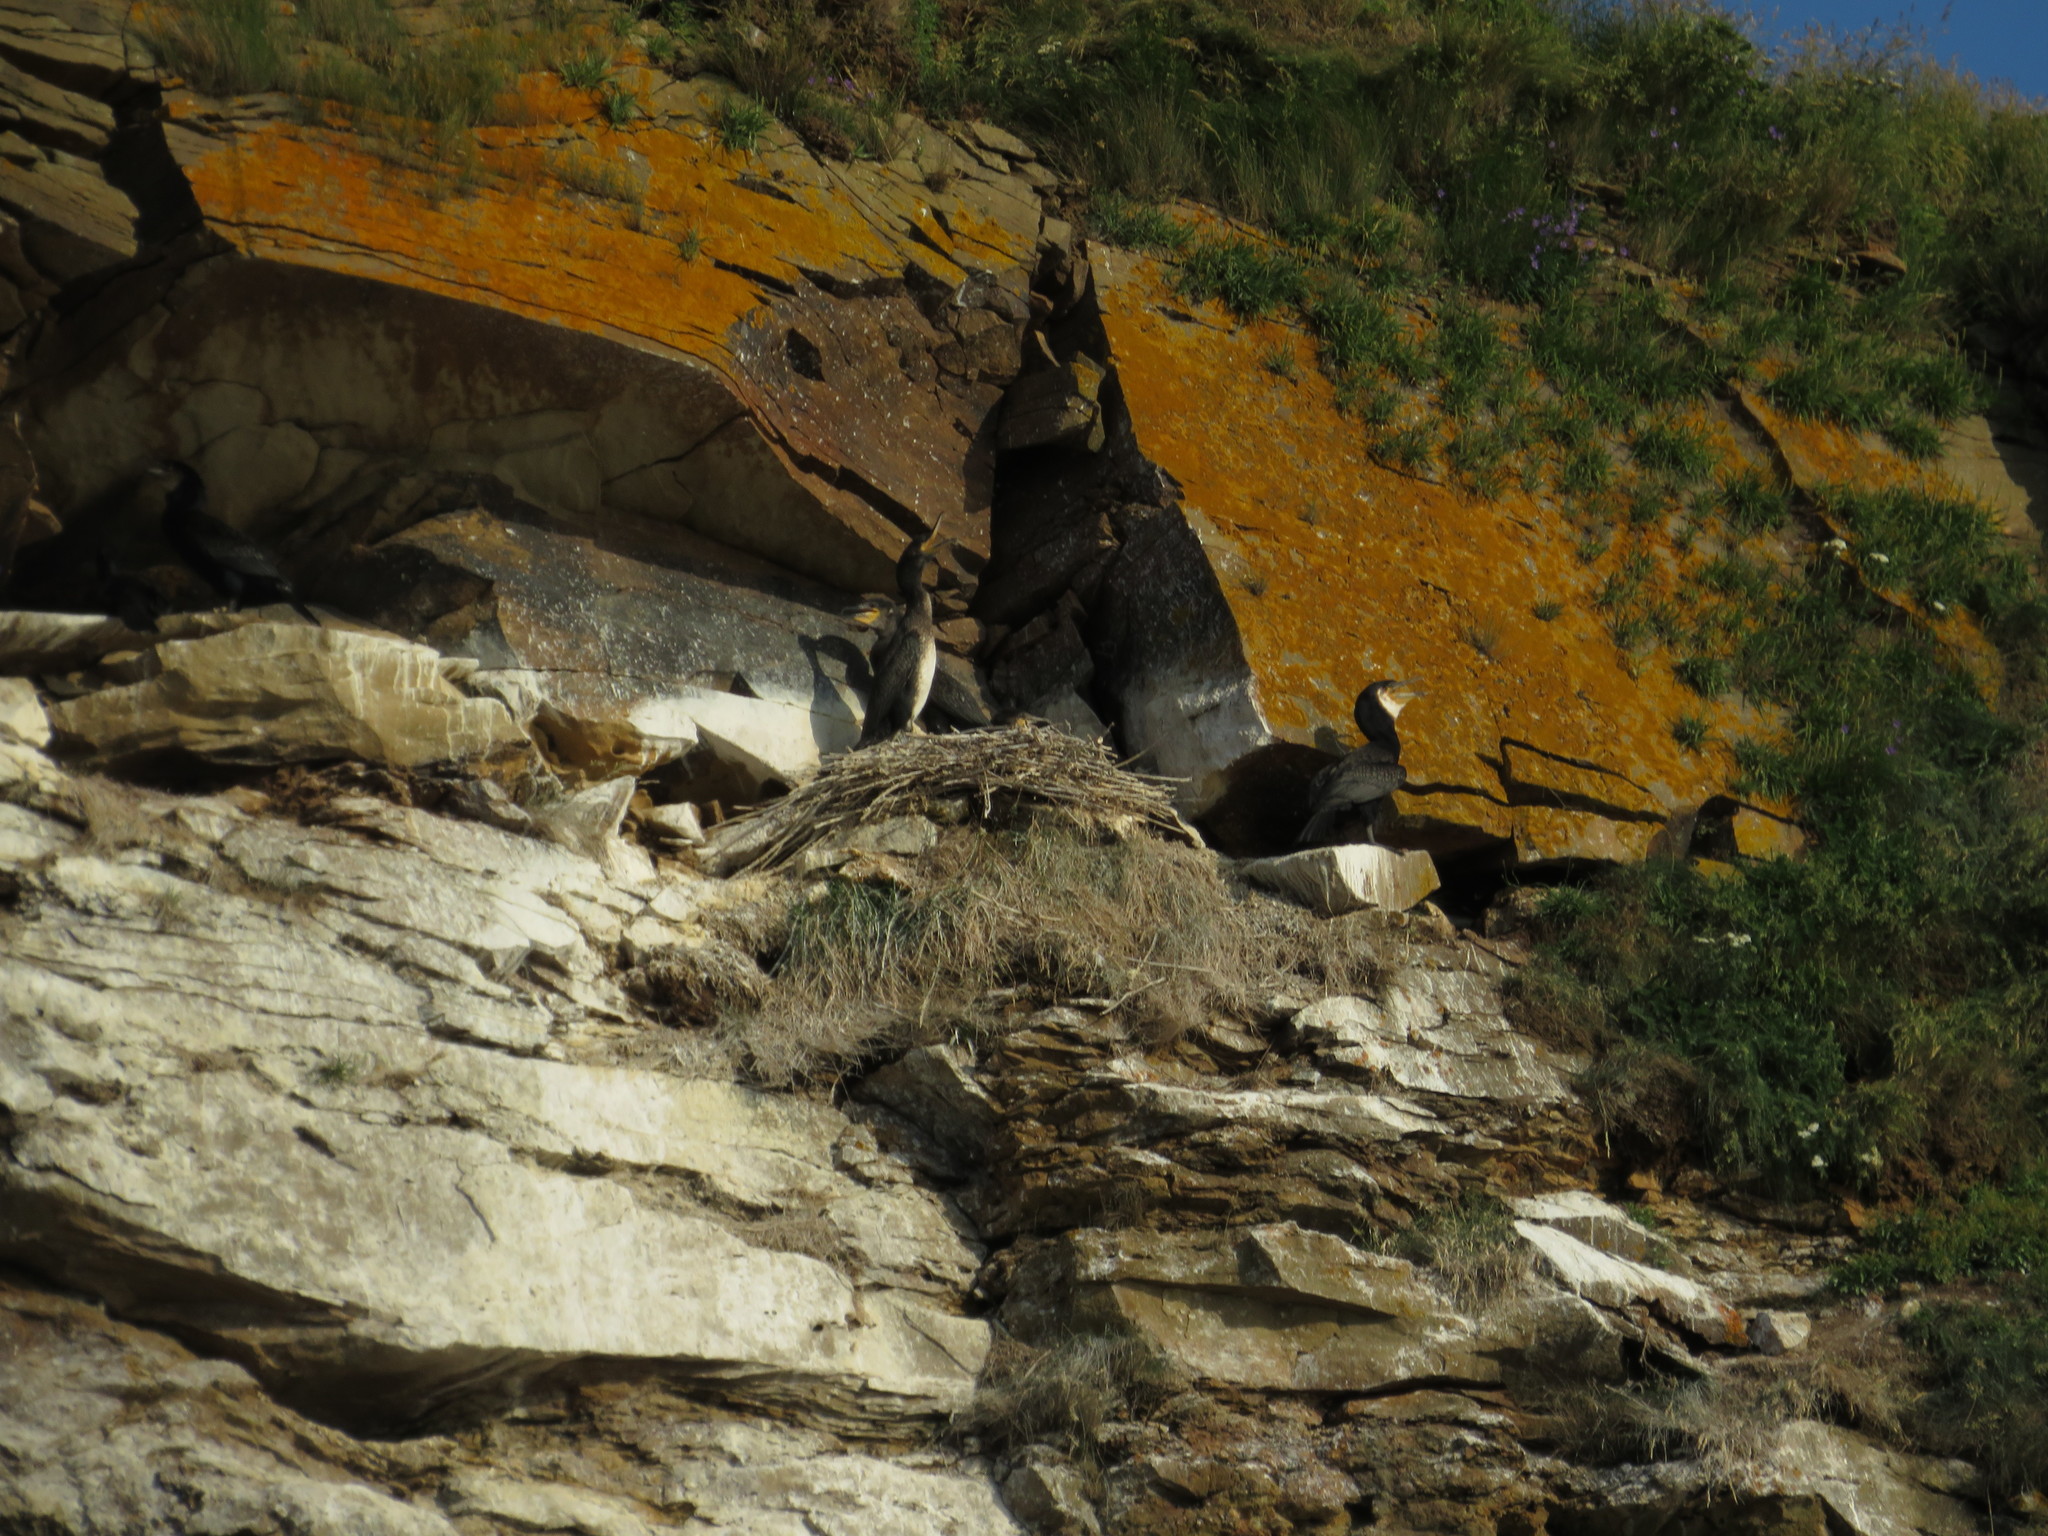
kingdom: Animalia
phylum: Chordata
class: Aves
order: Suliformes
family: Phalacrocoracidae
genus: Phalacrocorax
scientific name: Phalacrocorax carbo
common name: Great cormorant
